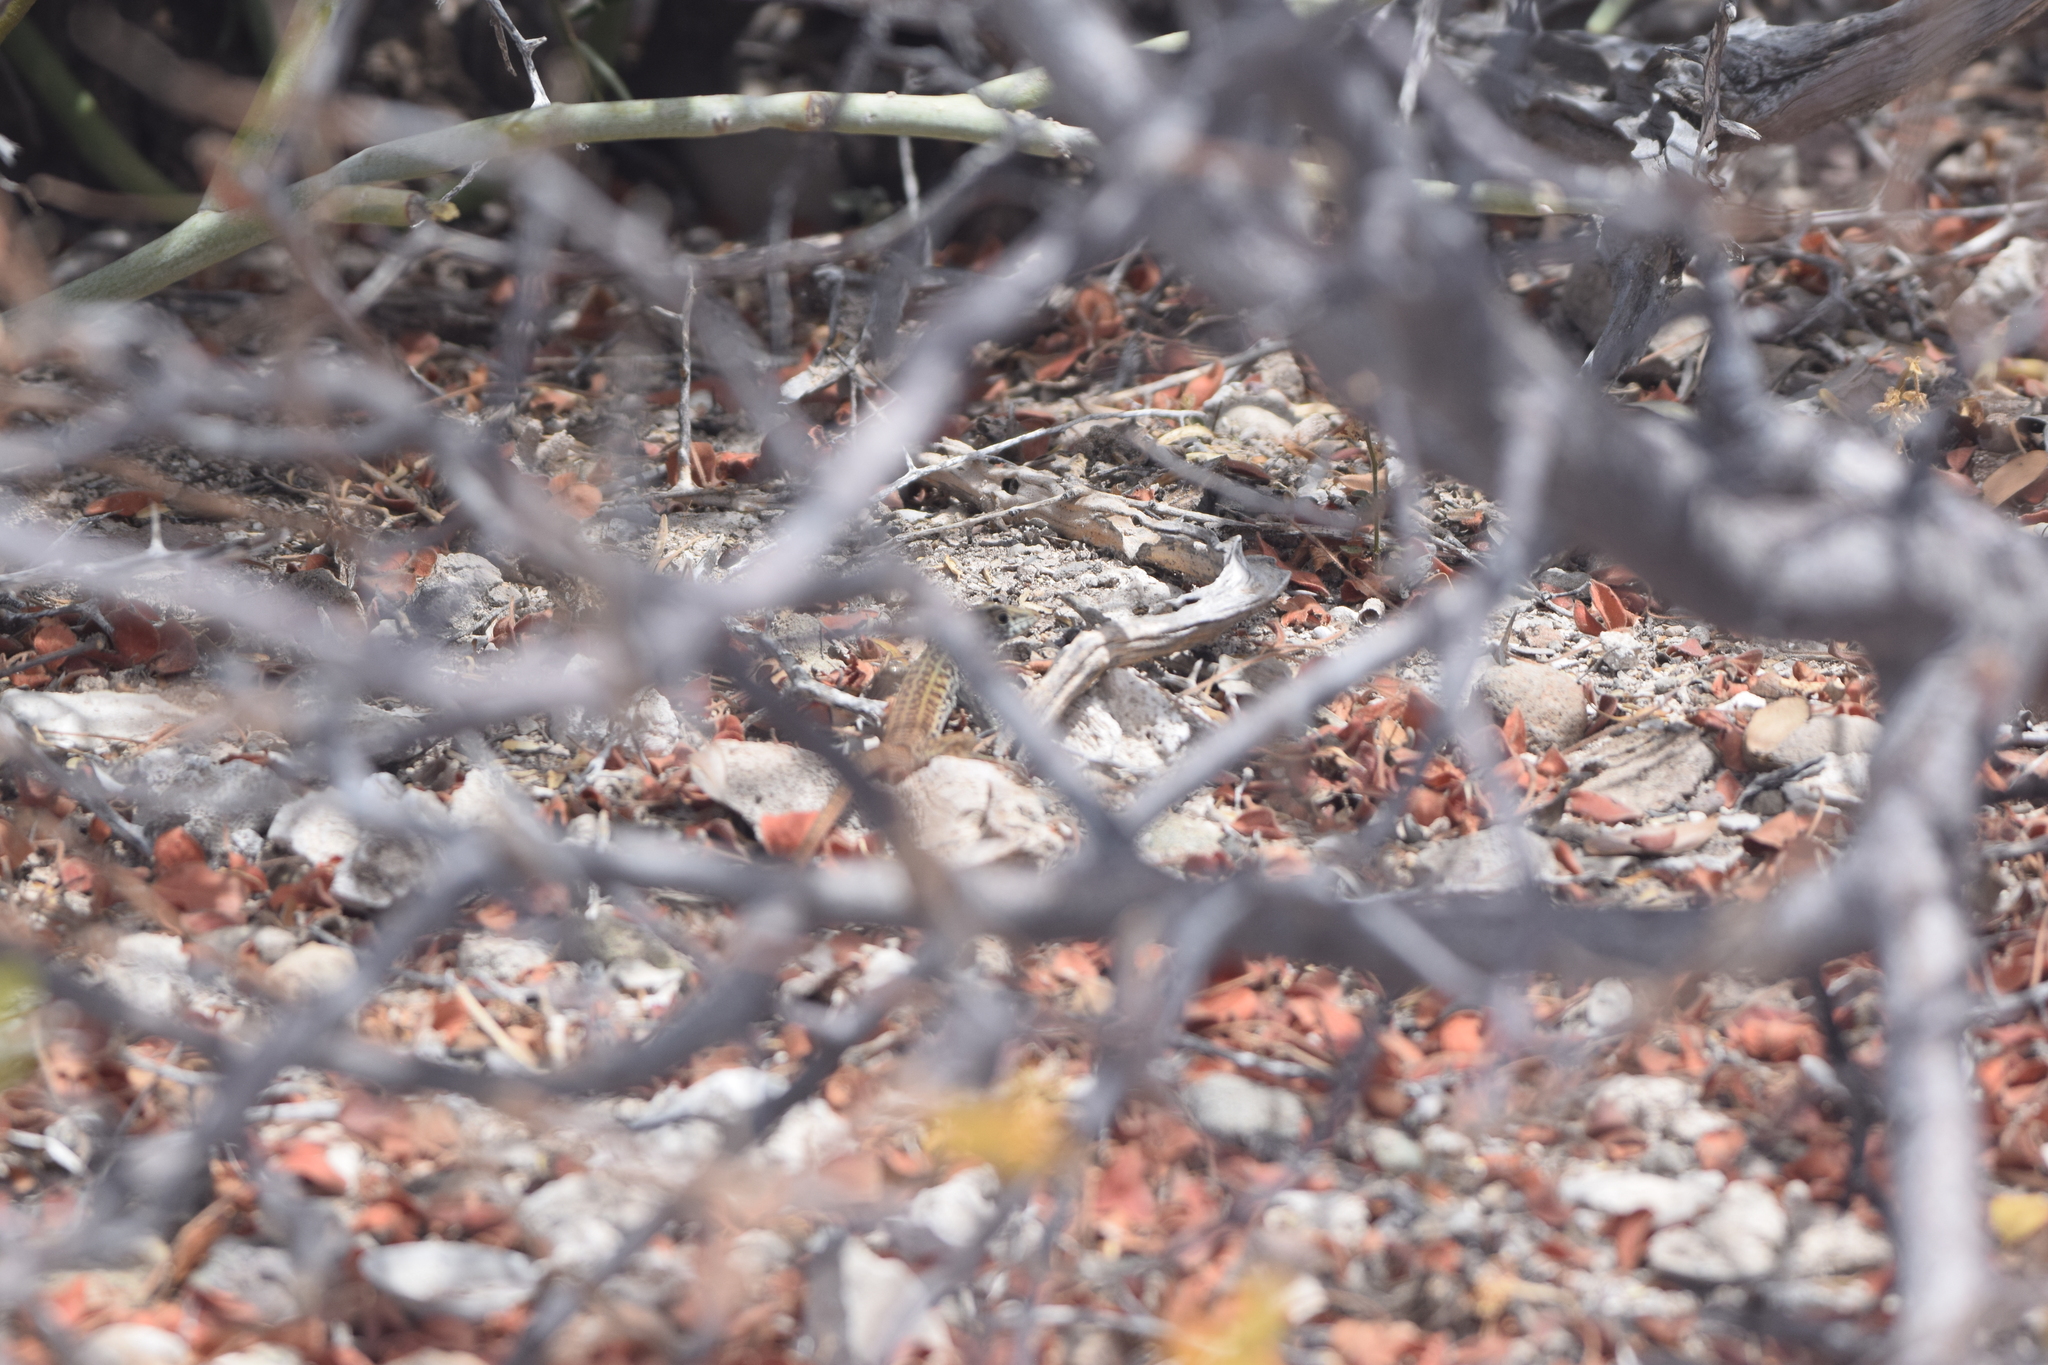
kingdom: Animalia
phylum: Chordata
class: Squamata
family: Teiidae
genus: Aspidoscelis
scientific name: Aspidoscelis maximus
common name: Cape region whiptail
